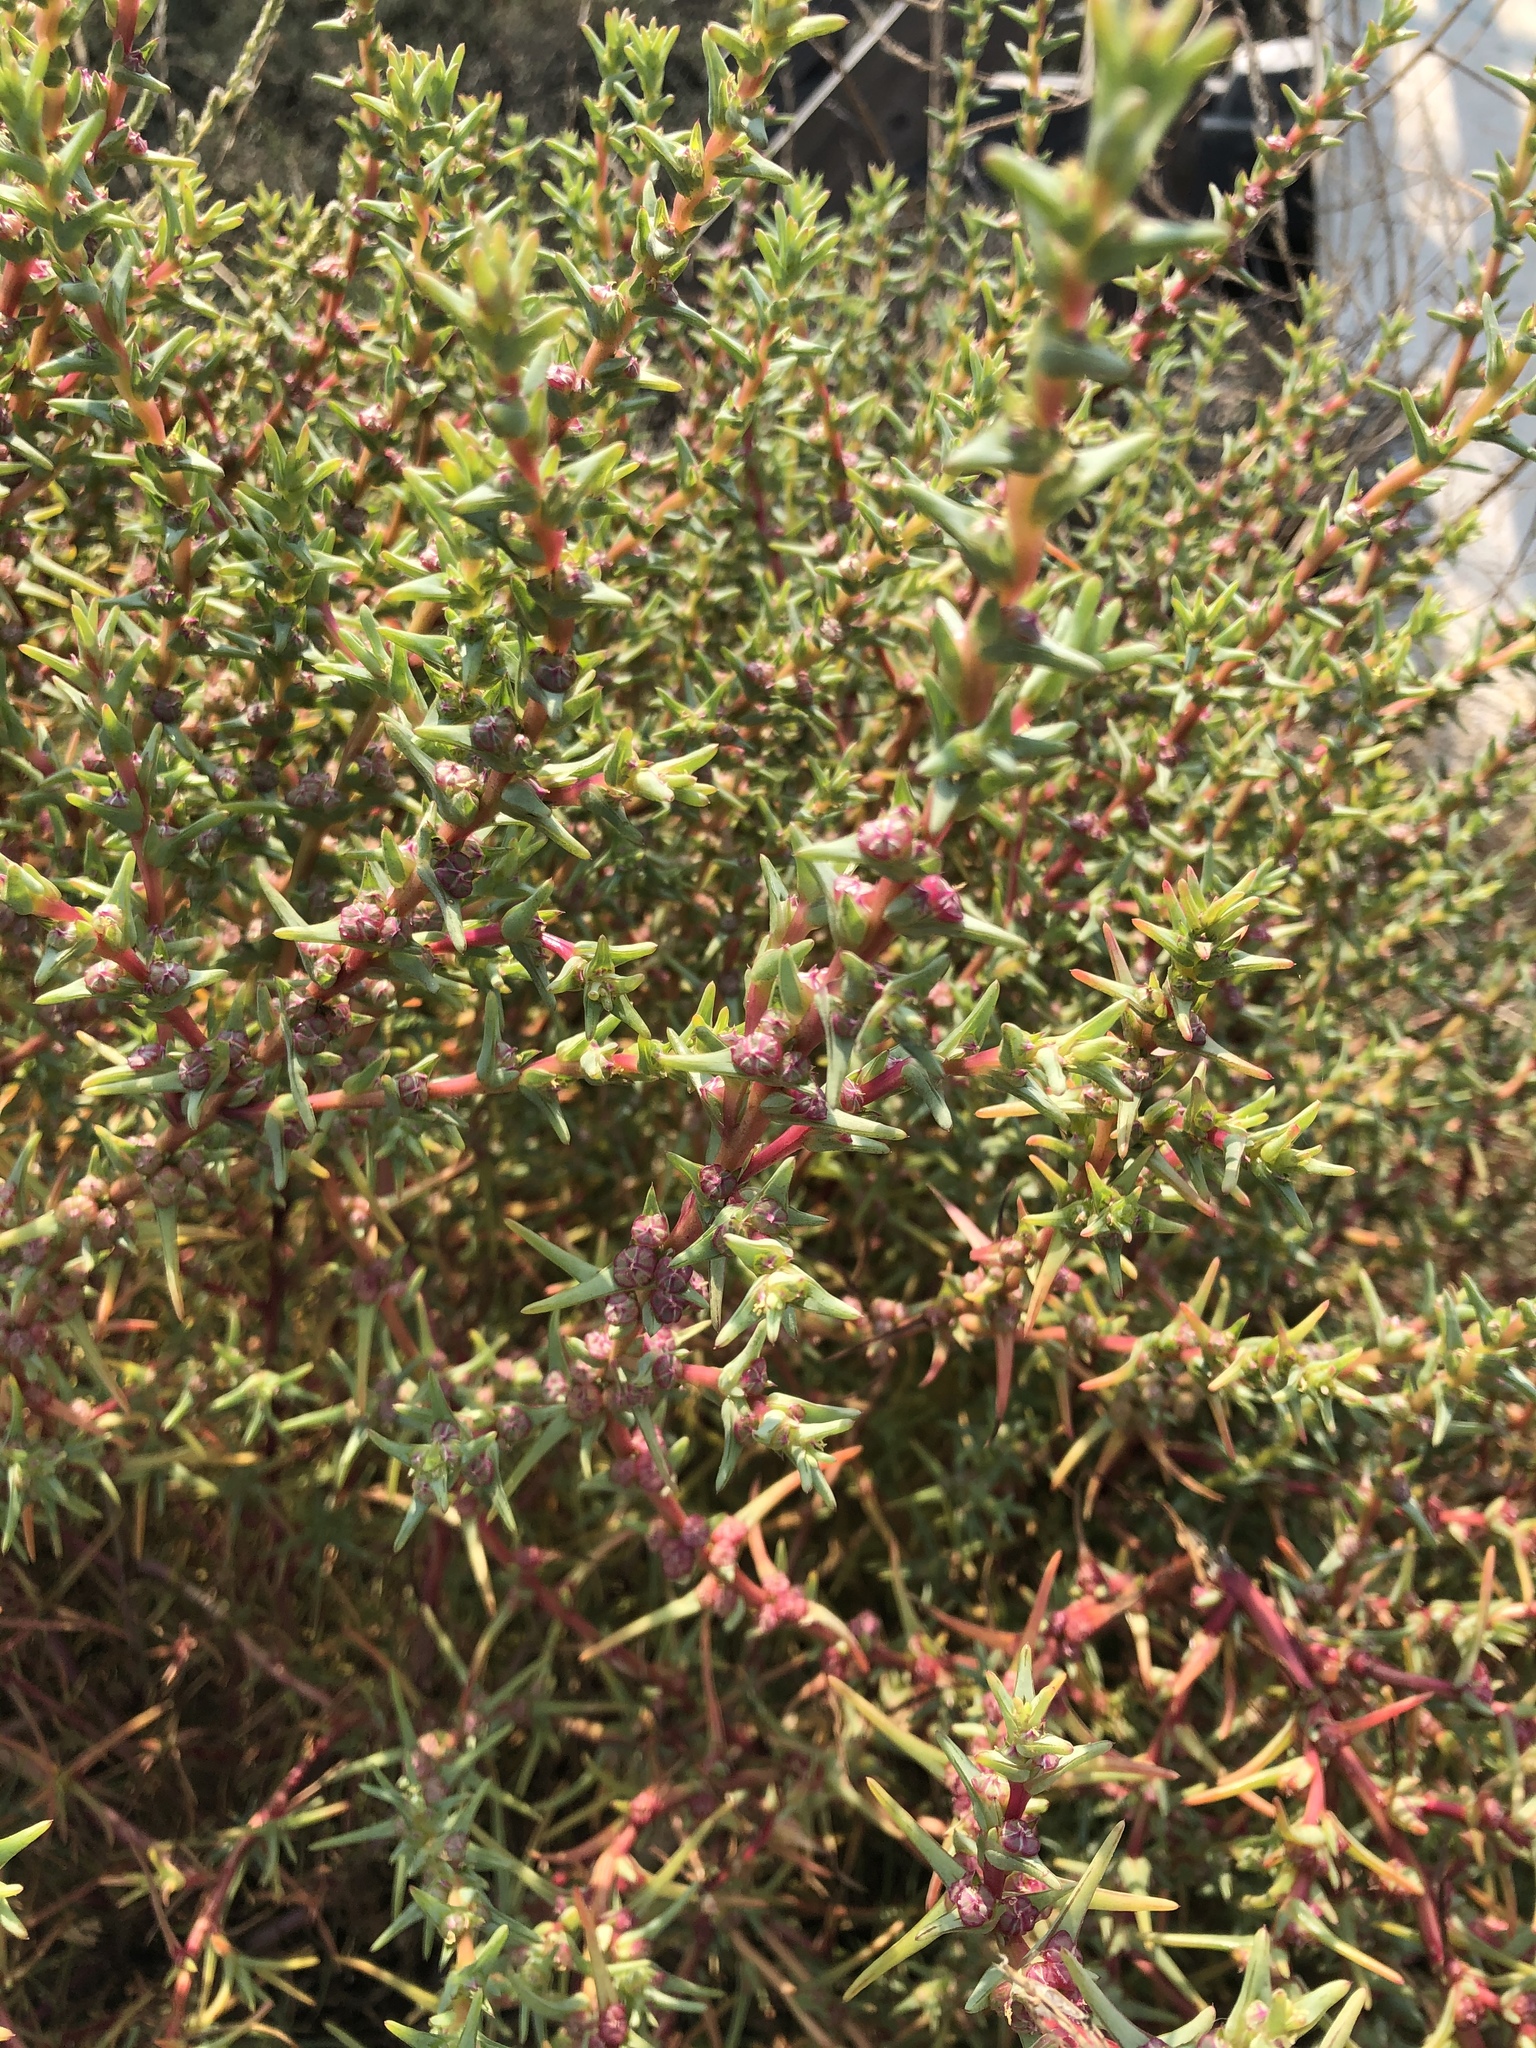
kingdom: Plantae
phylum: Tracheophyta
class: Magnoliopsida
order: Caryophyllales
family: Amaranthaceae
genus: Salsola
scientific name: Salsola soda
